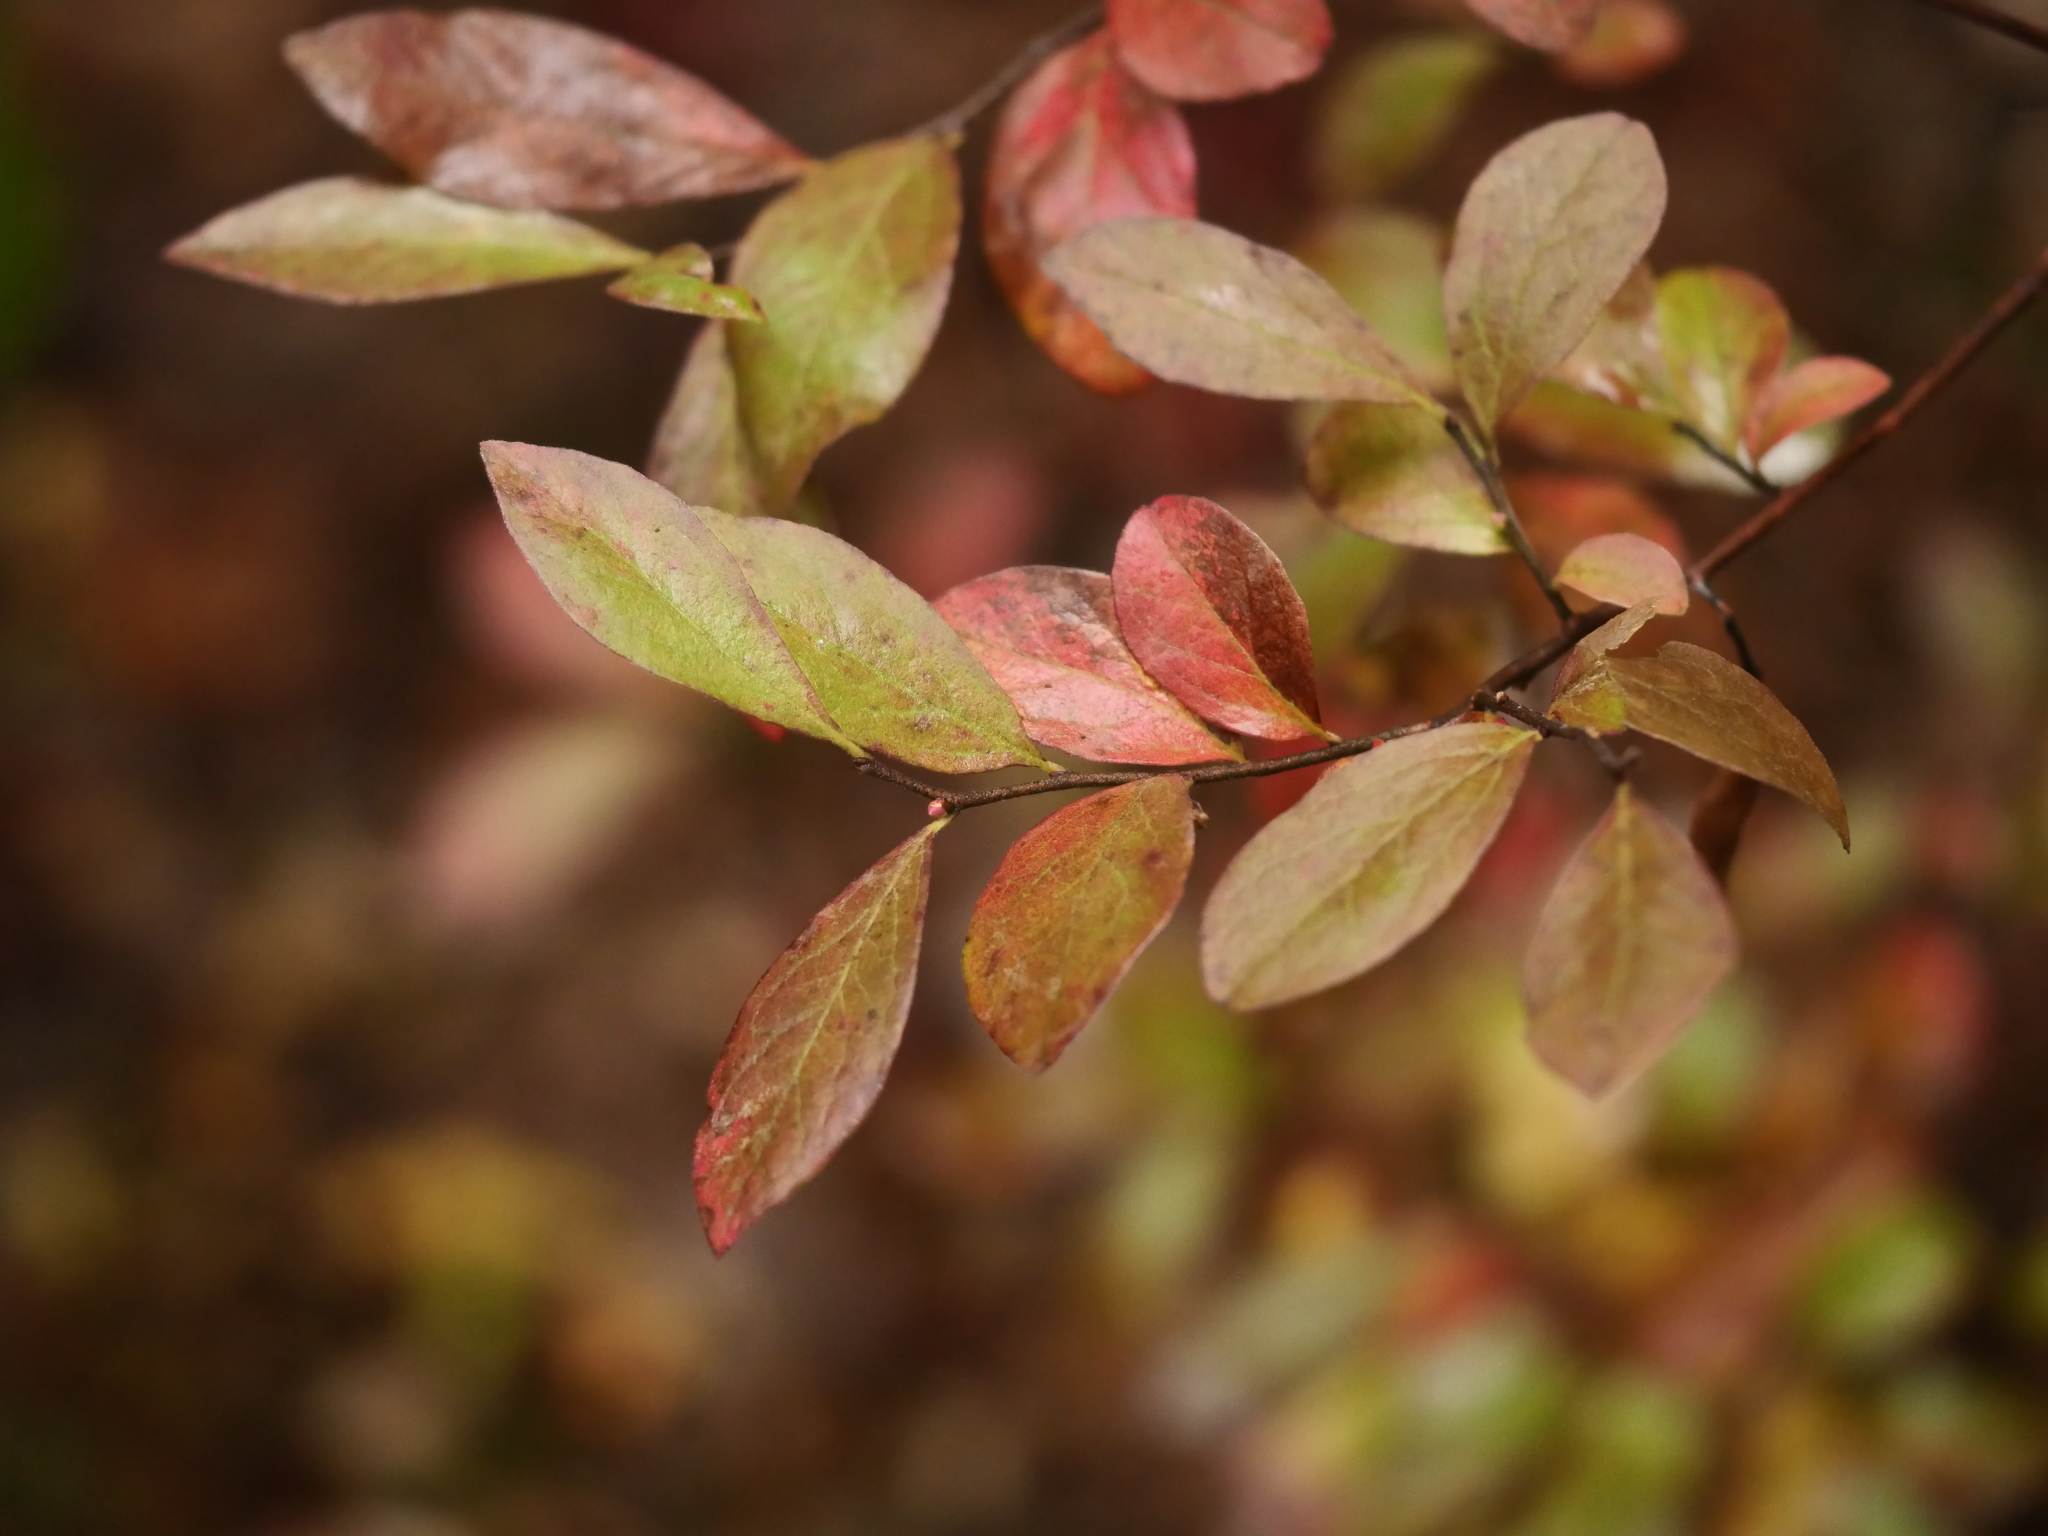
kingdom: Plantae
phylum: Tracheophyta
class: Magnoliopsida
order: Ericales
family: Ericaceae
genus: Gaylussacia
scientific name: Gaylussacia baccata
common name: Black huckleberry
